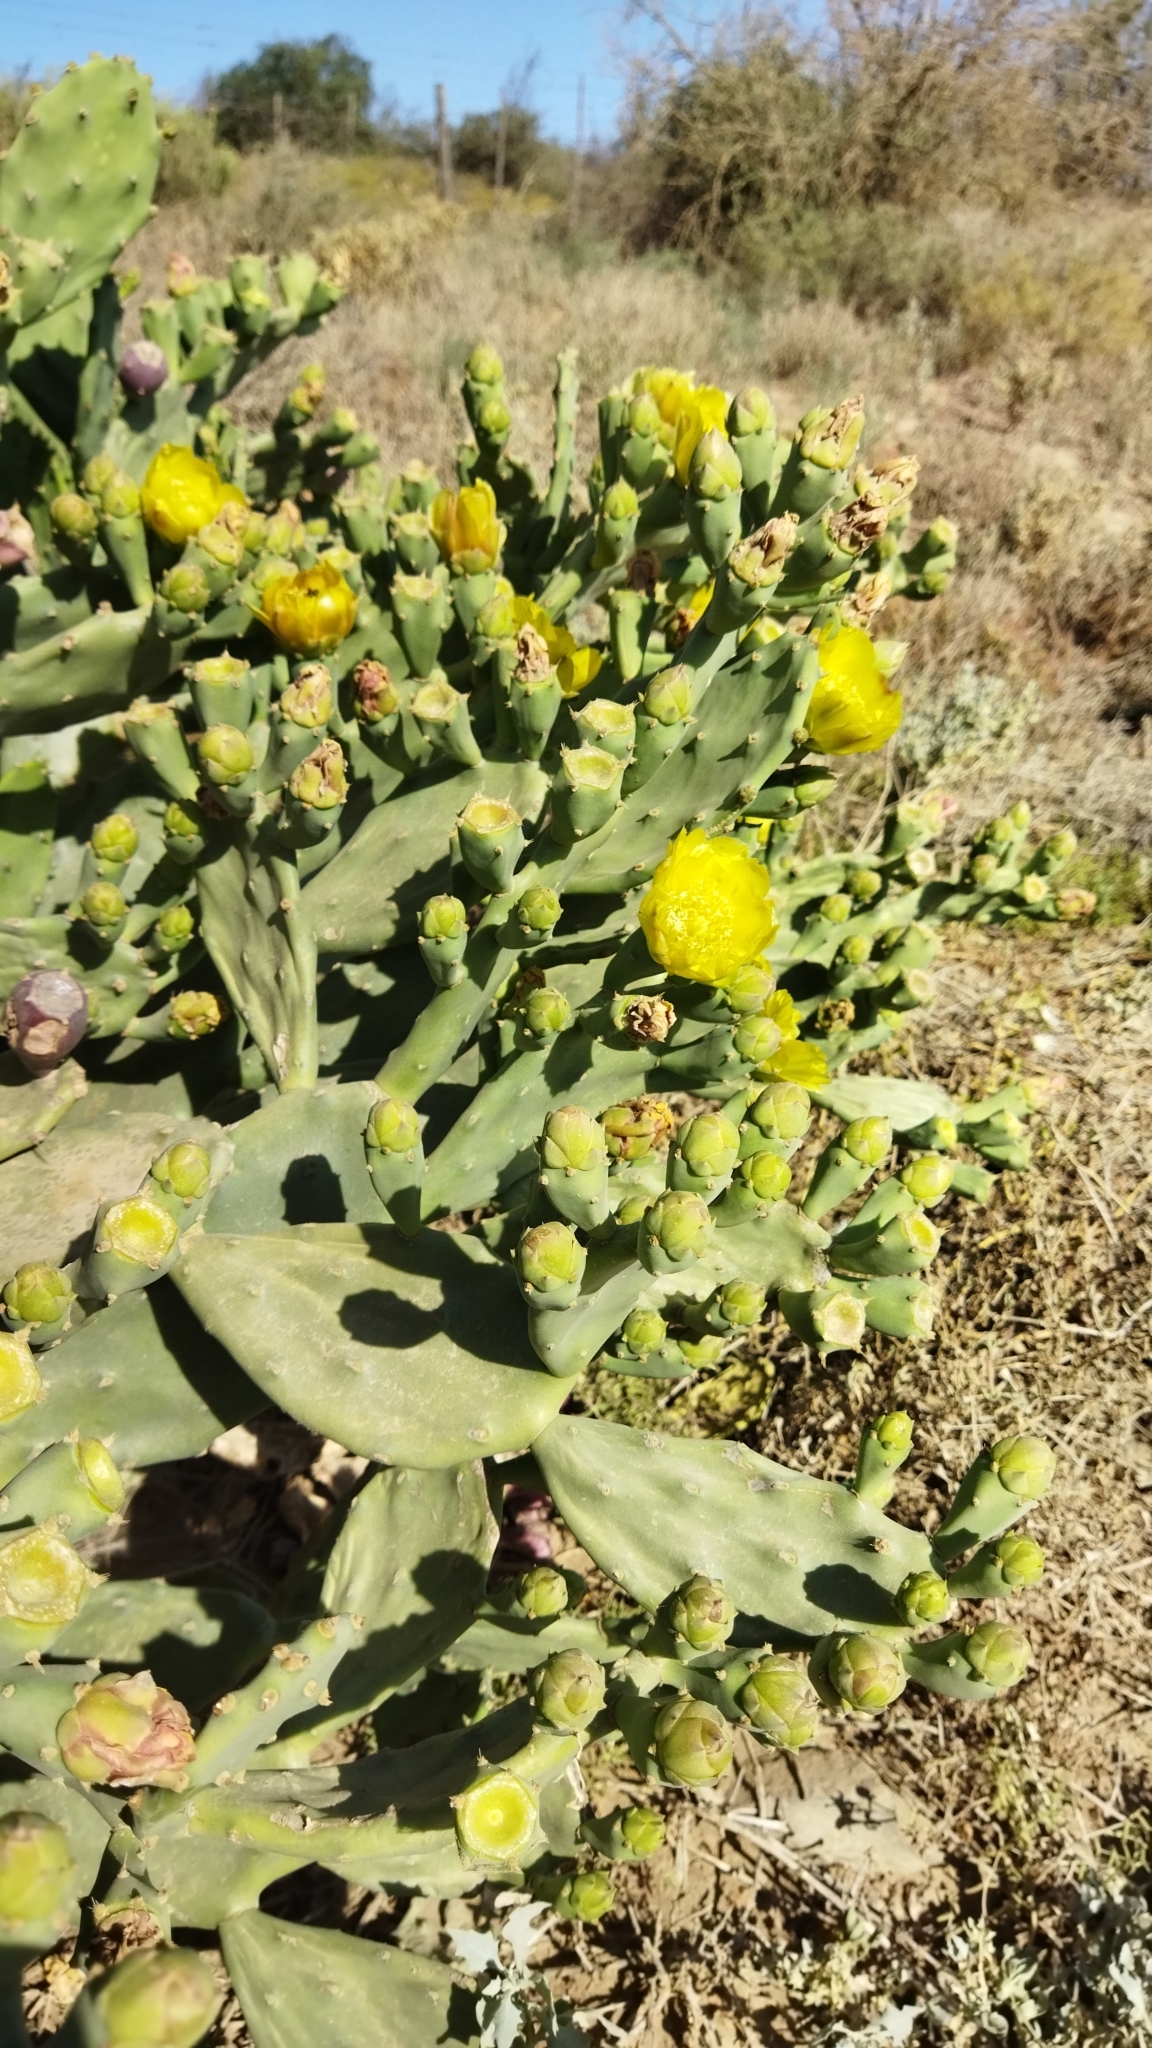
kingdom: Plantae
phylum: Tracheophyta
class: Magnoliopsida
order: Caryophyllales
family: Cactaceae
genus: Opuntia
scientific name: Opuntia stricta
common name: Erect pricklypear
